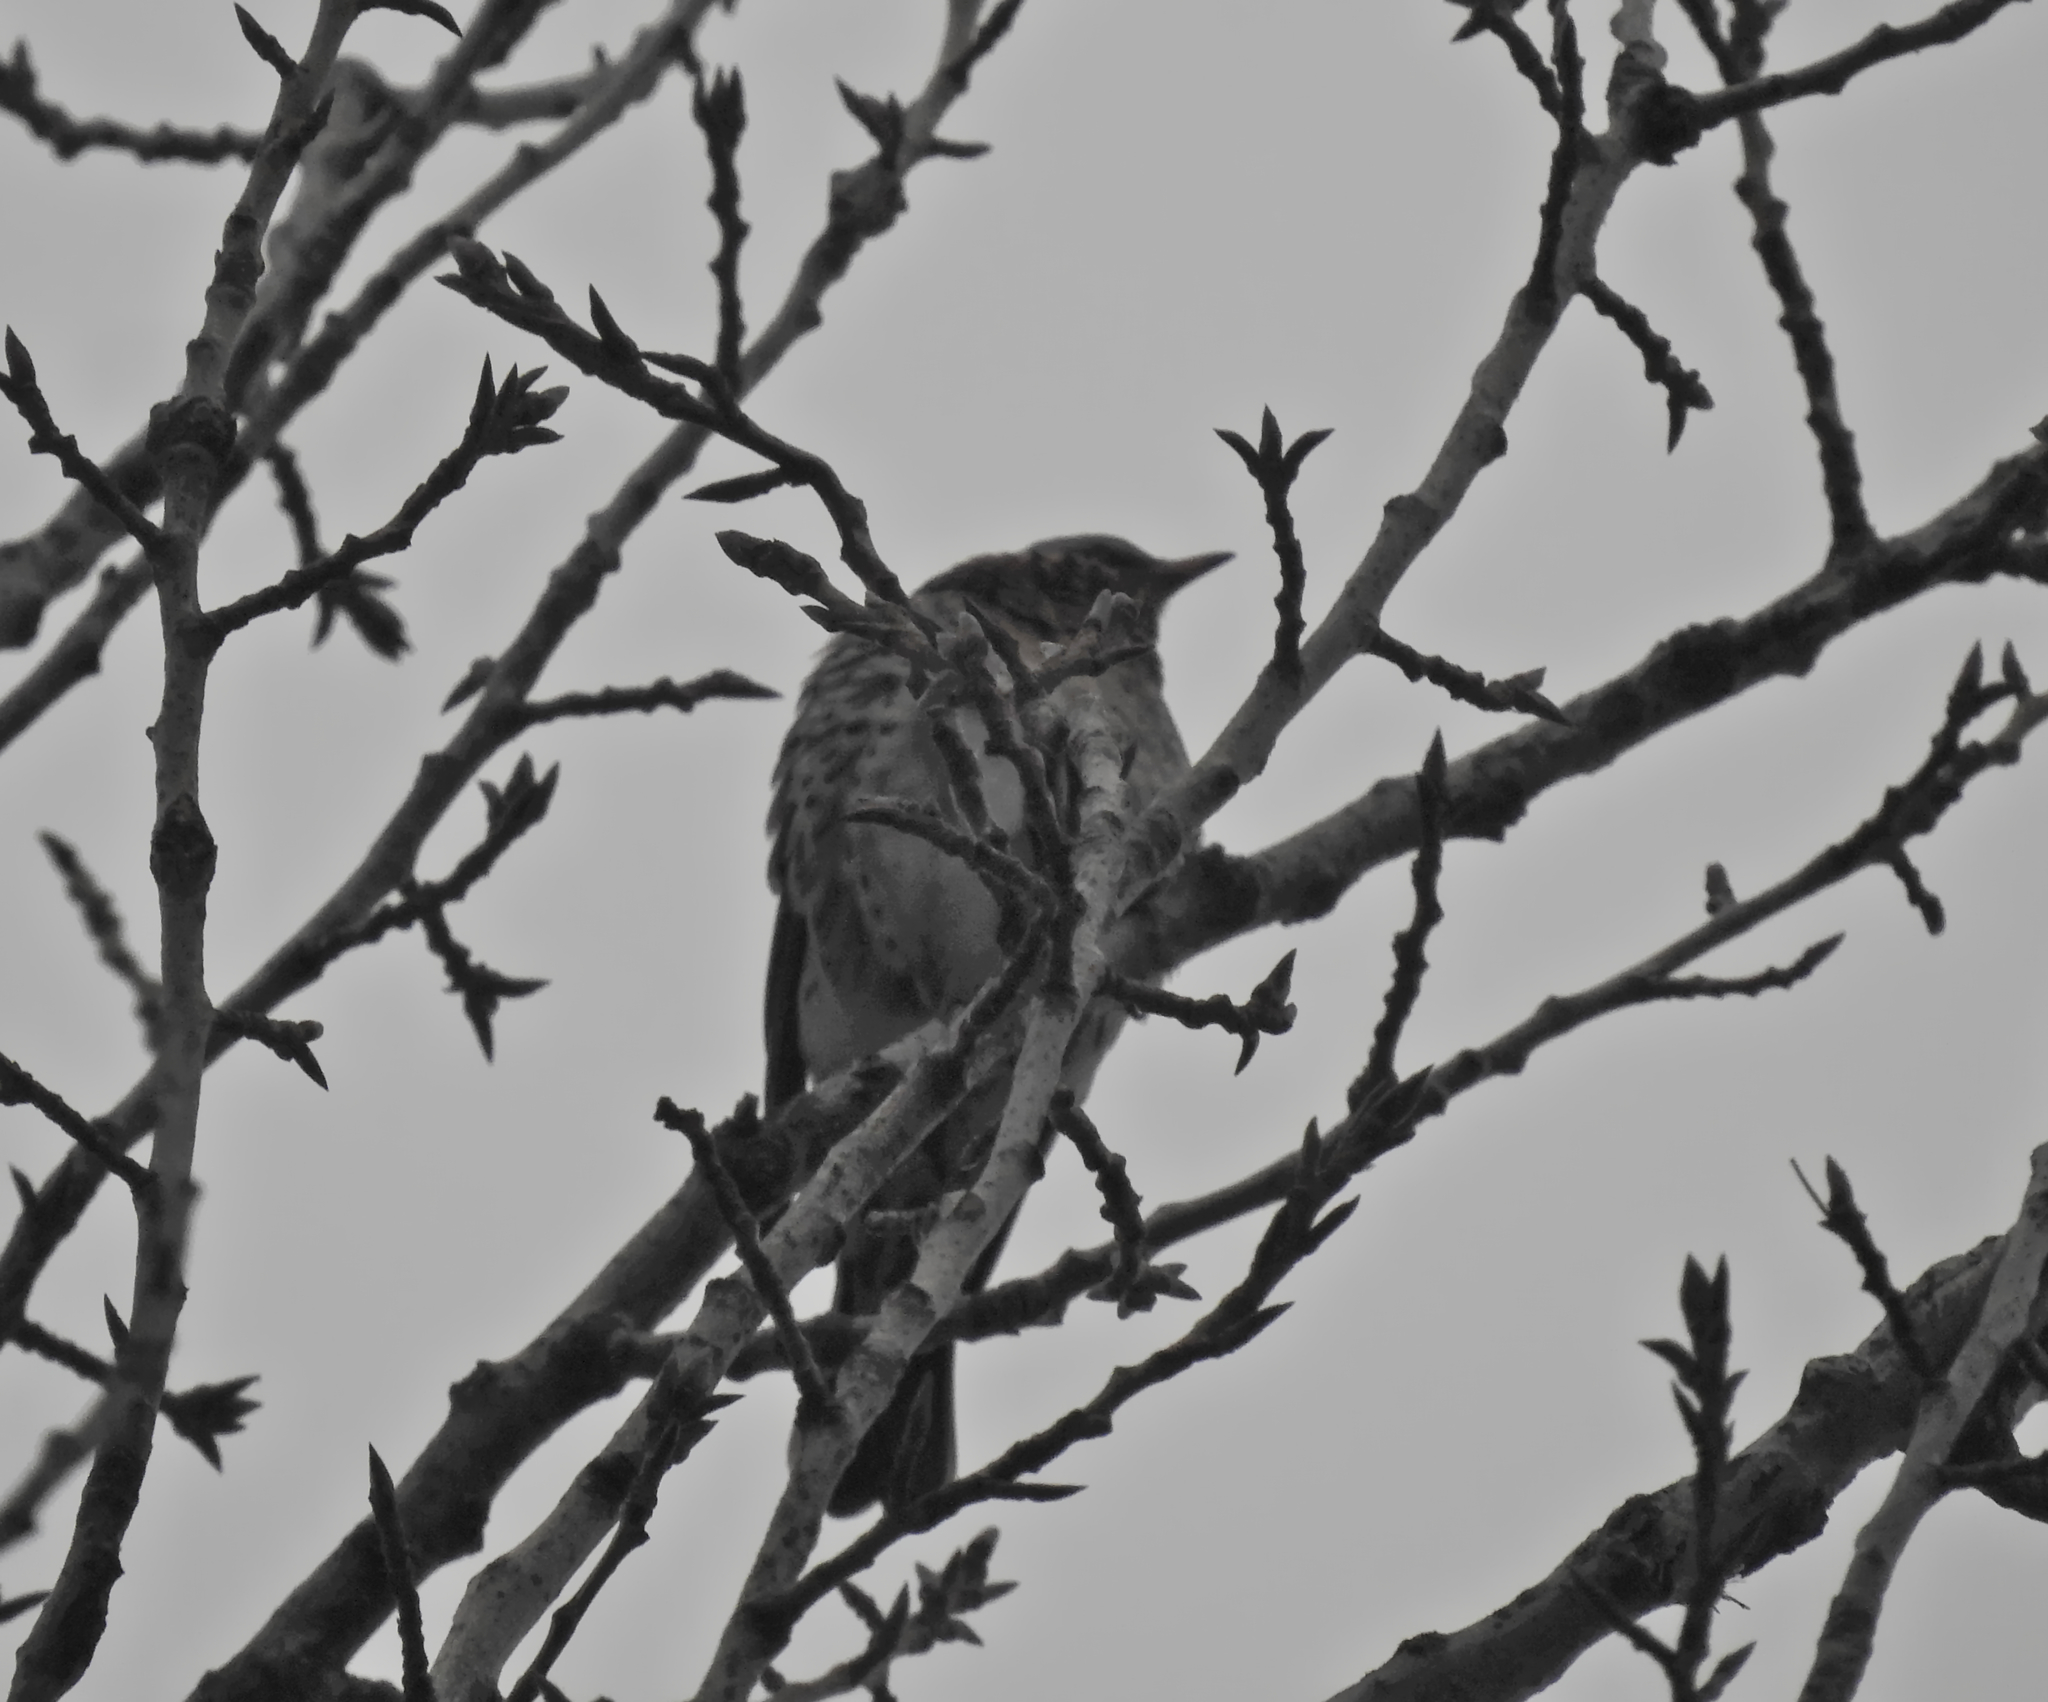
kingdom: Animalia
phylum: Chordata
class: Aves
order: Passeriformes
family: Turdidae
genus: Turdus
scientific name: Turdus pilaris
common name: Fieldfare
